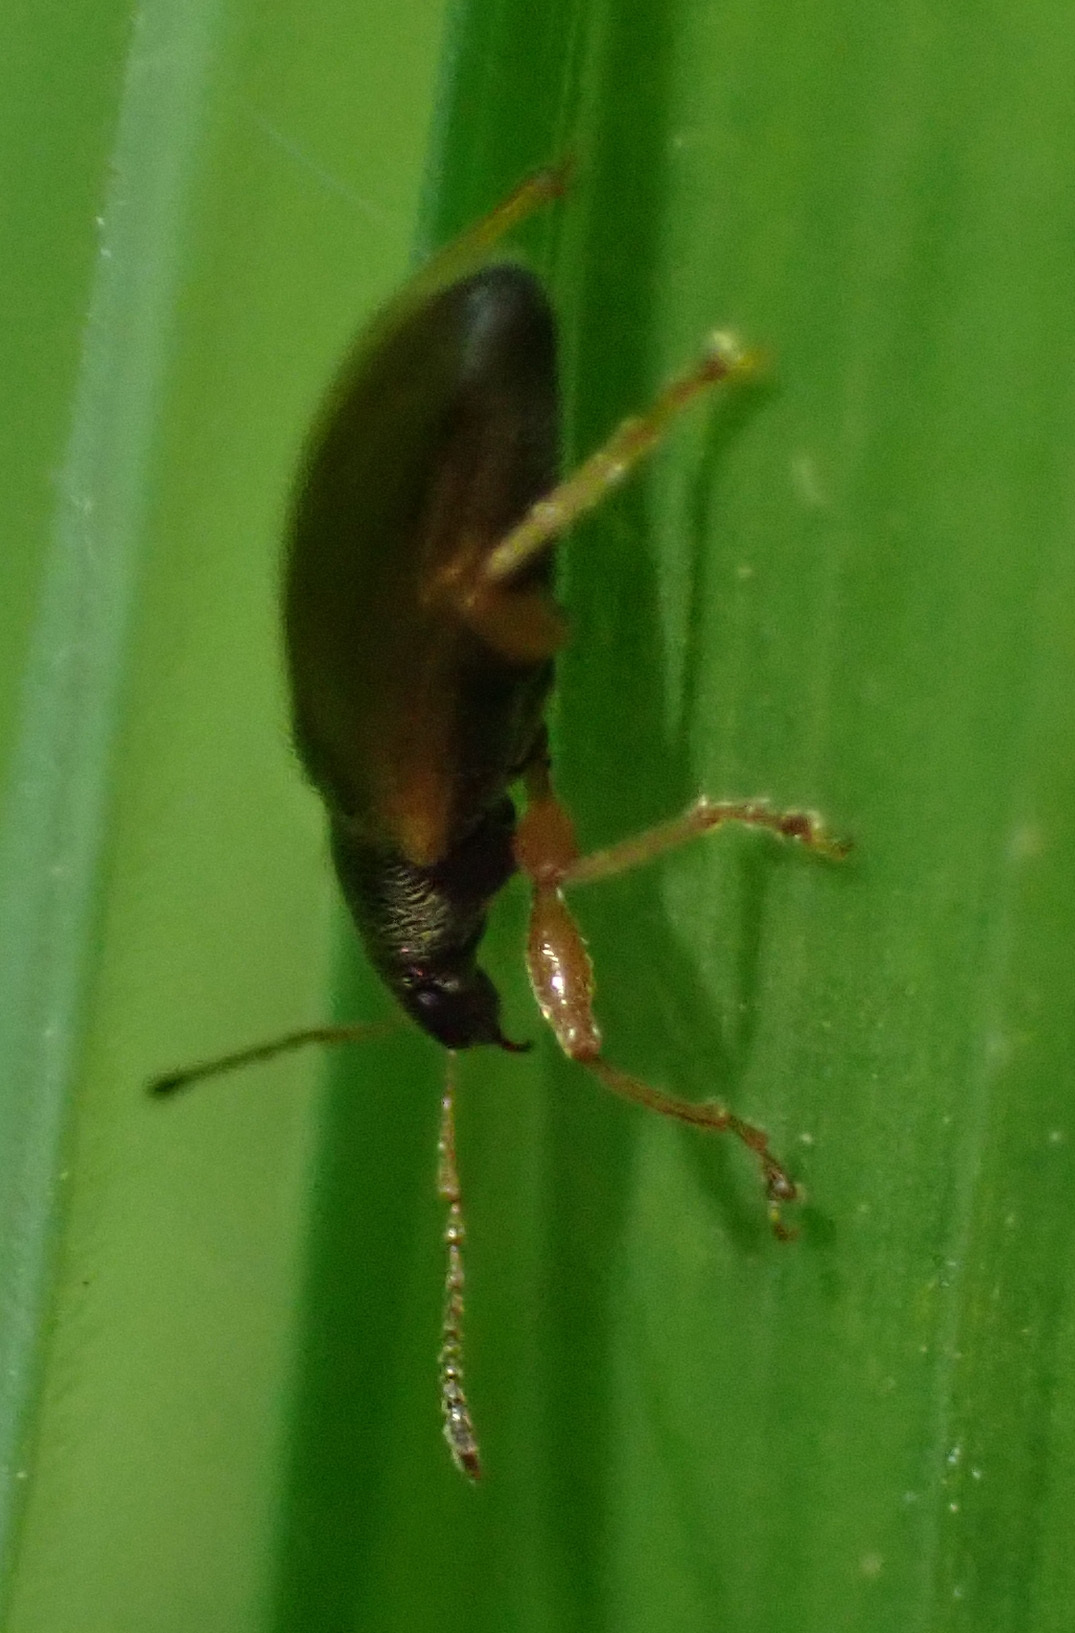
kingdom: Animalia
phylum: Arthropoda
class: Insecta
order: Coleoptera
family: Curculionidae
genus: Phyllobius
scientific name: Phyllobius oblongus
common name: Brown leaf weevil
